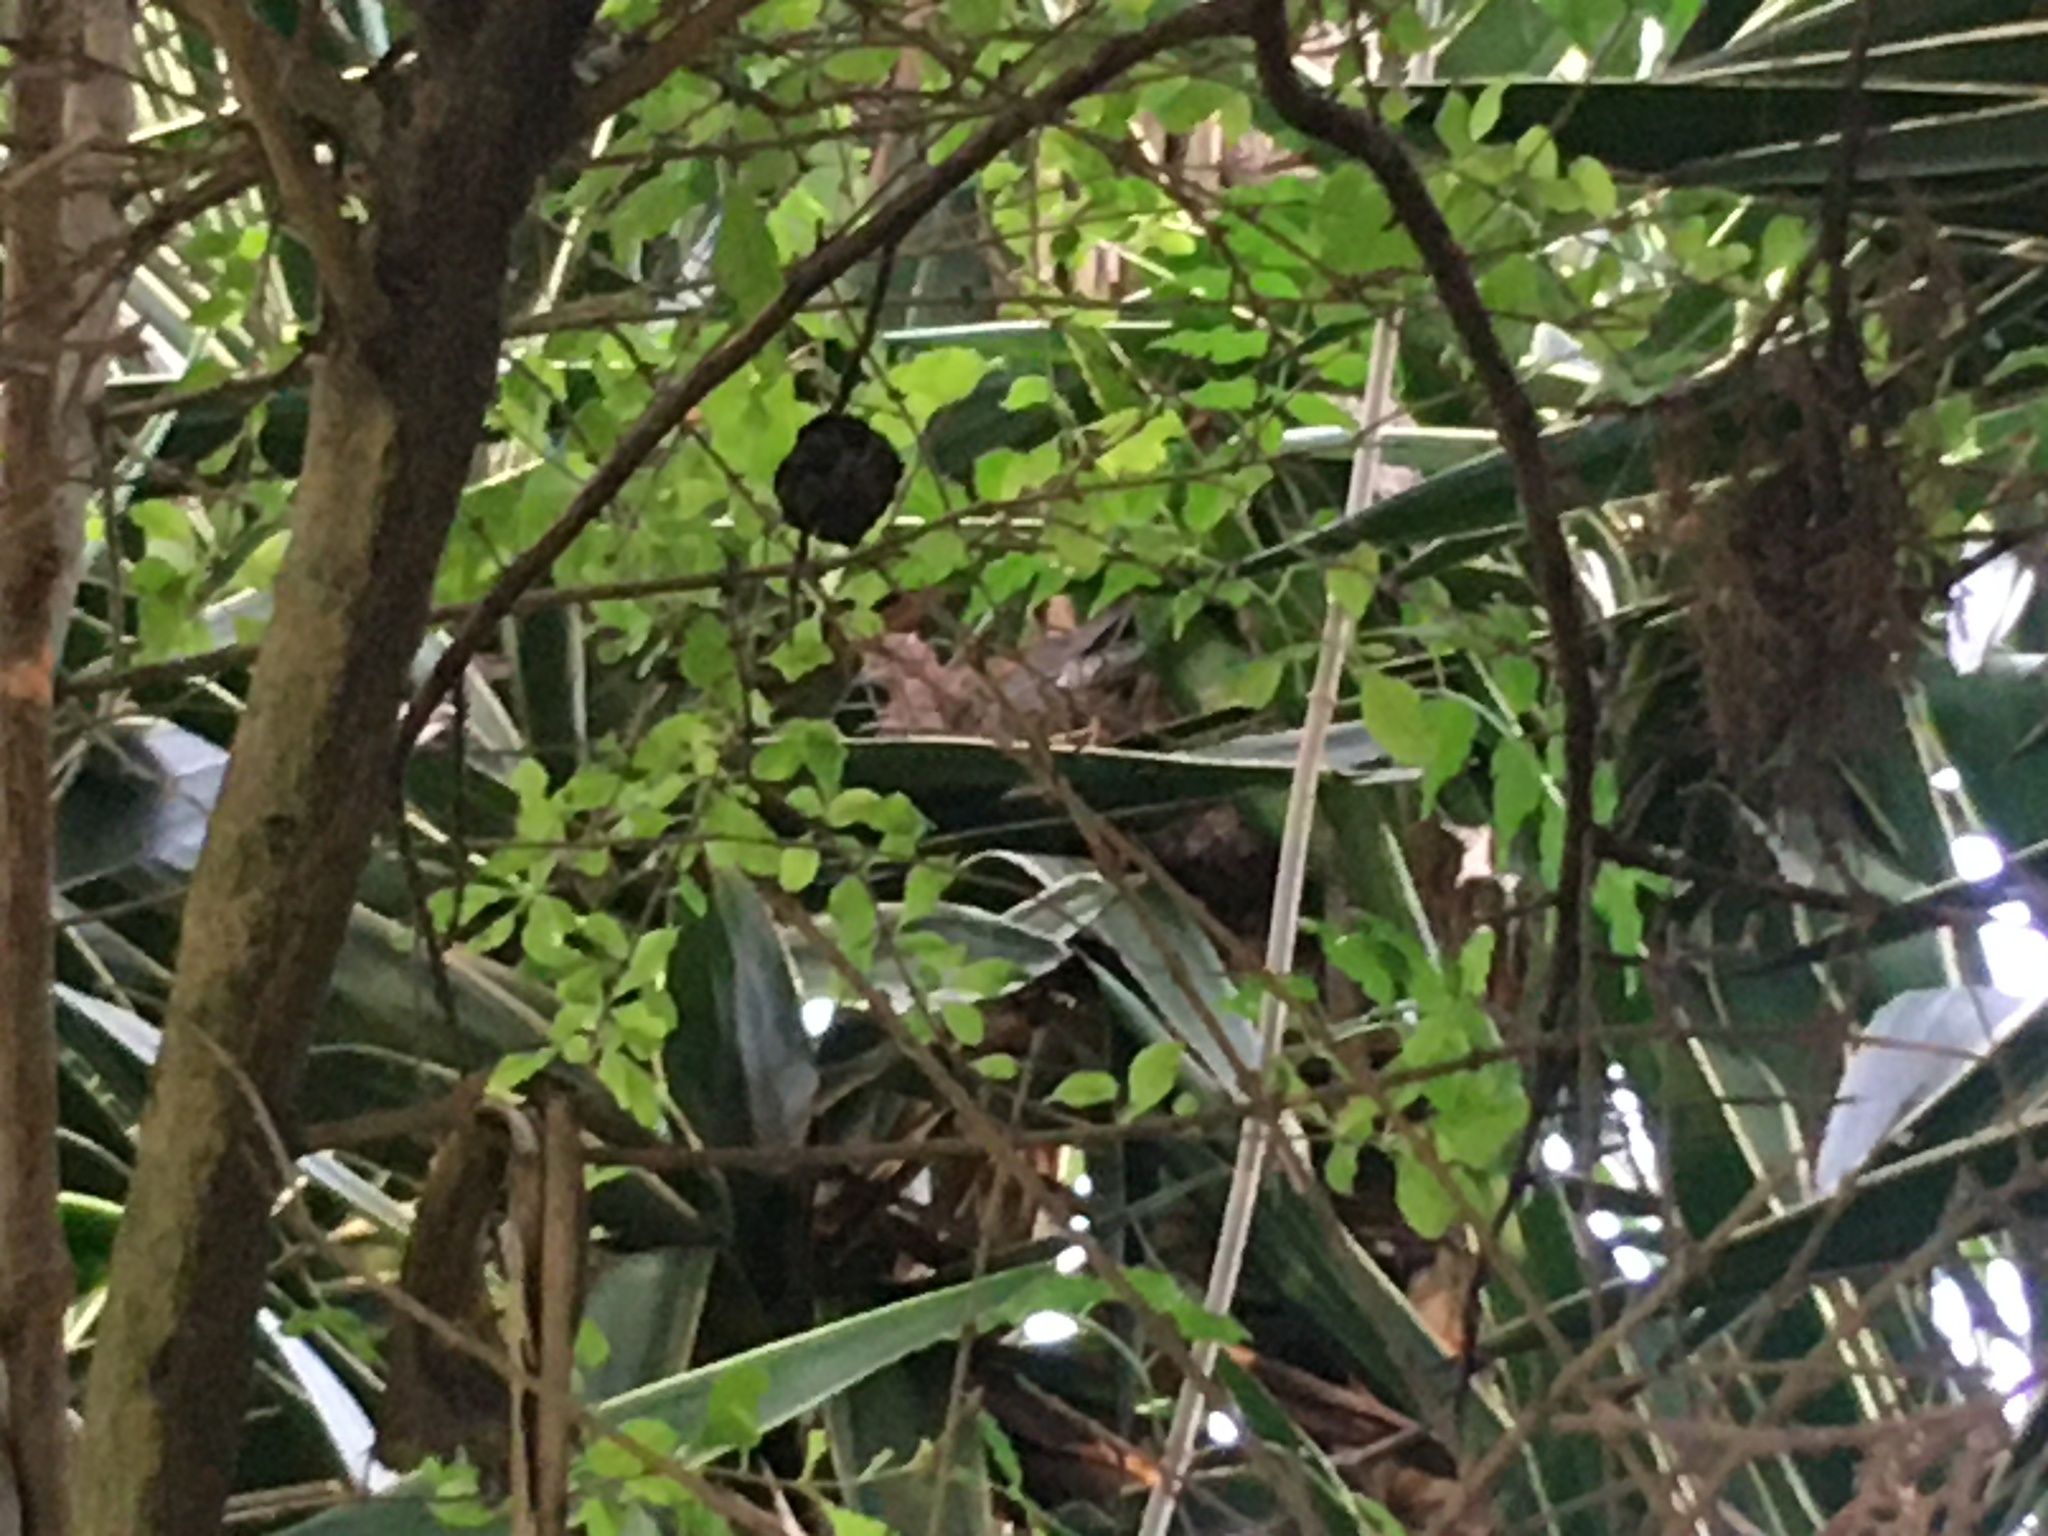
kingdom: Animalia
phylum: Chordata
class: Aves
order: Columbiformes
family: Columbidae
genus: Spilopelia
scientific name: Spilopelia senegalensis
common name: Laughing dove
